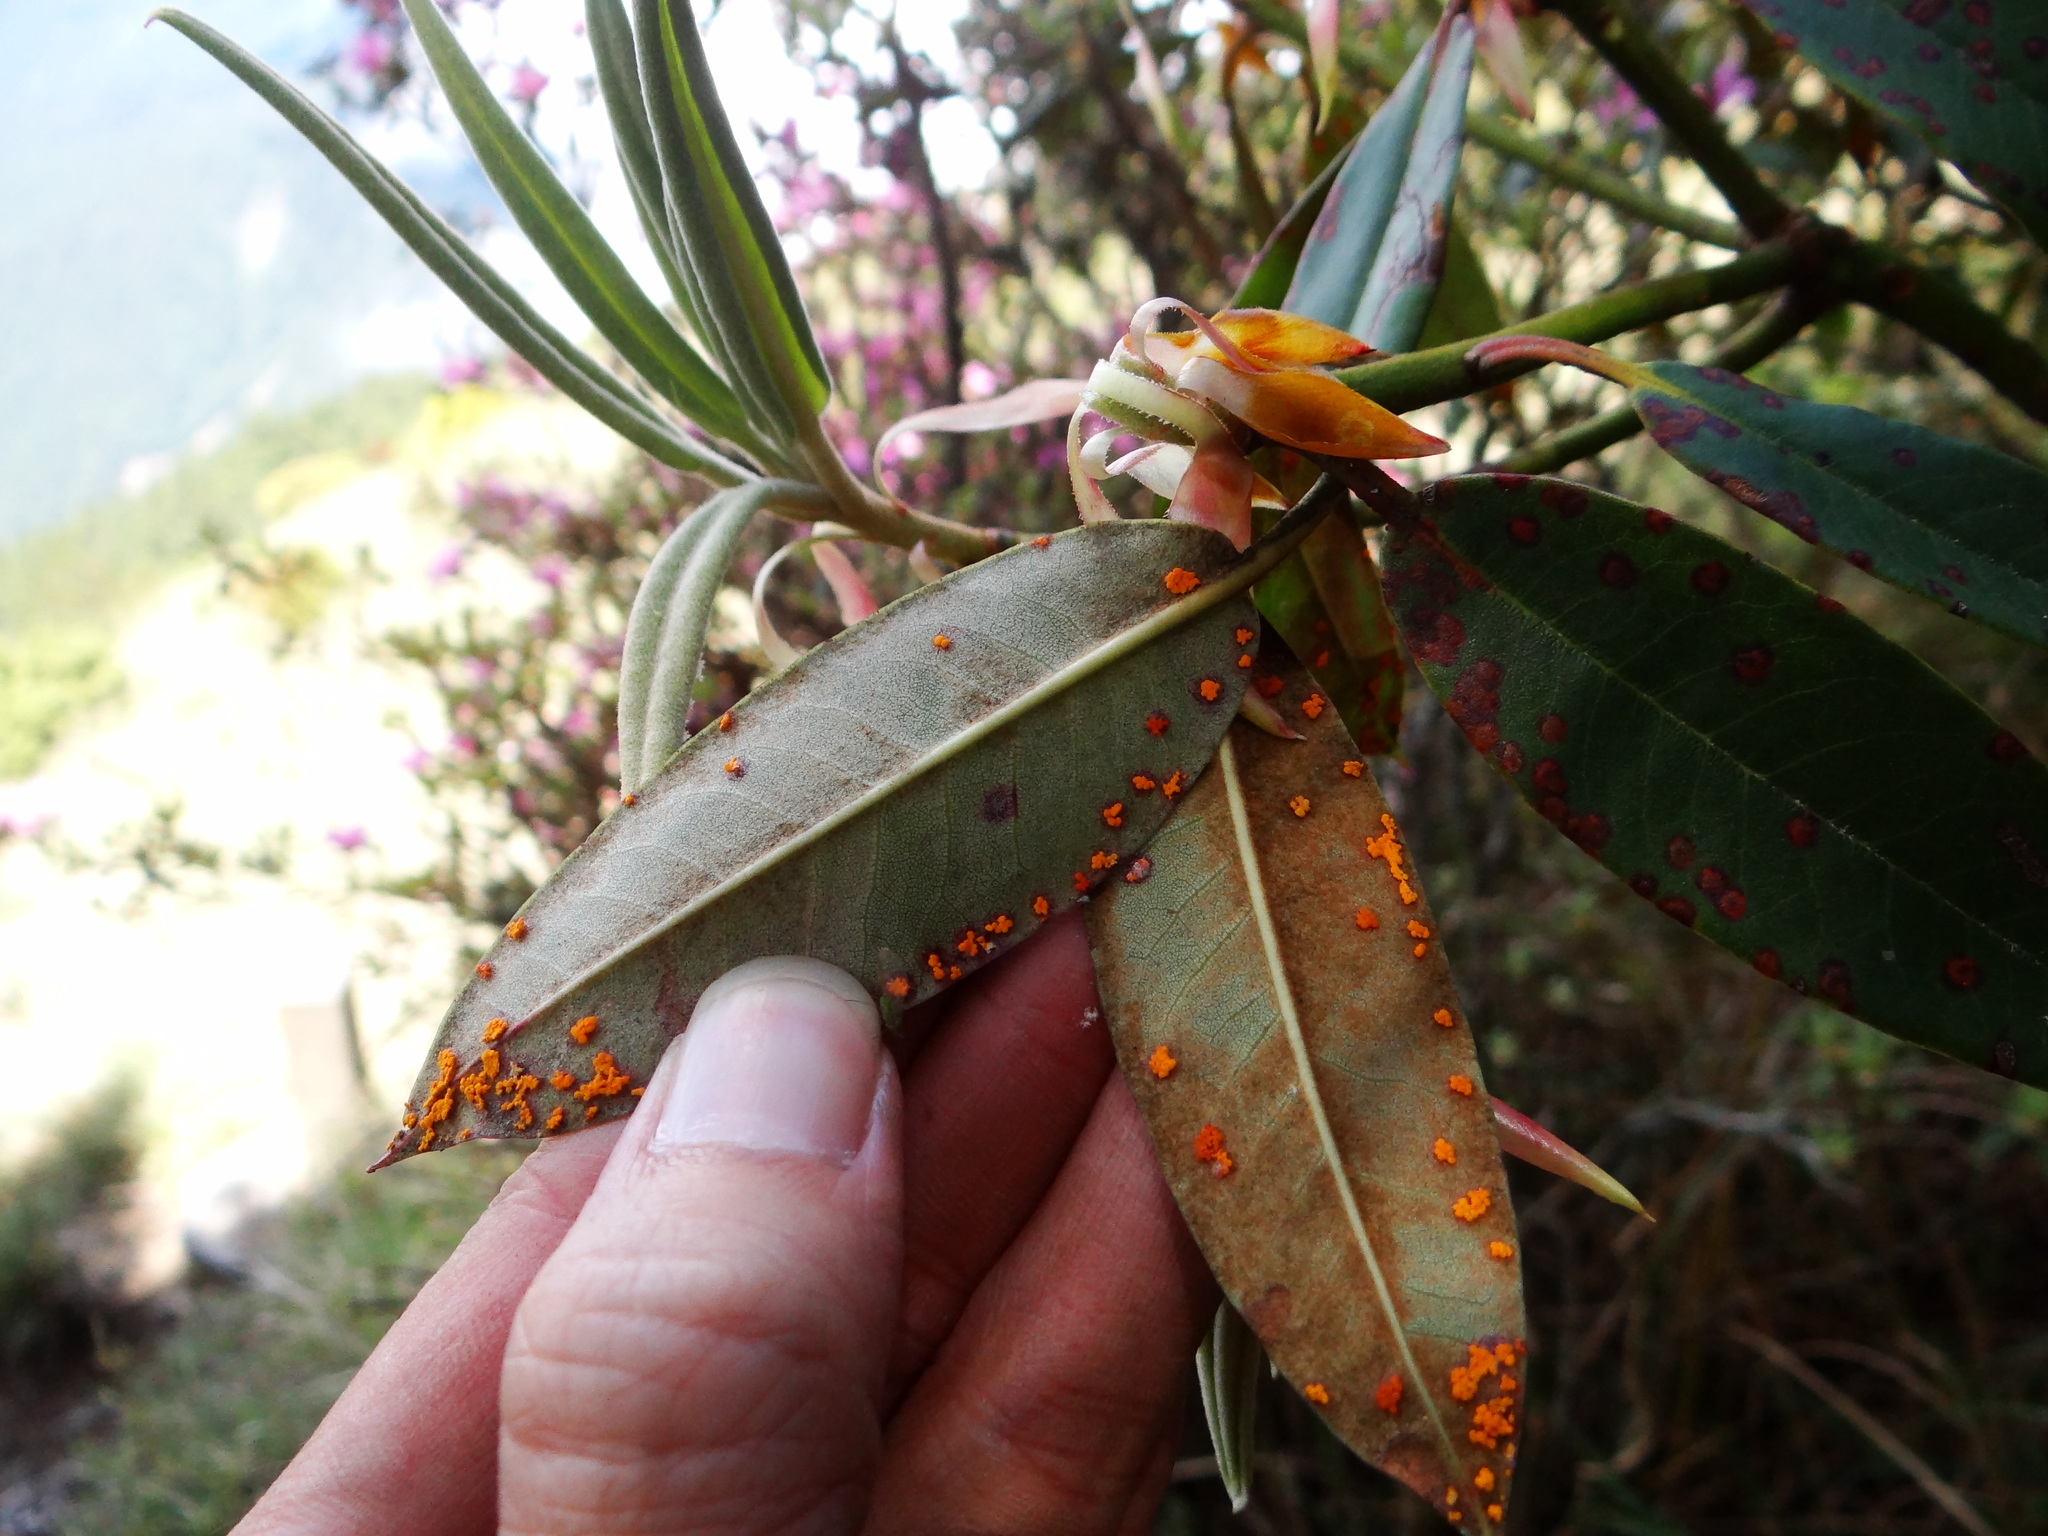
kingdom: Plantae
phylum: Tracheophyta
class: Magnoliopsida
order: Ericales
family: Ericaceae
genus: Rhododendron
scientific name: Rhododendron hyperythrum
